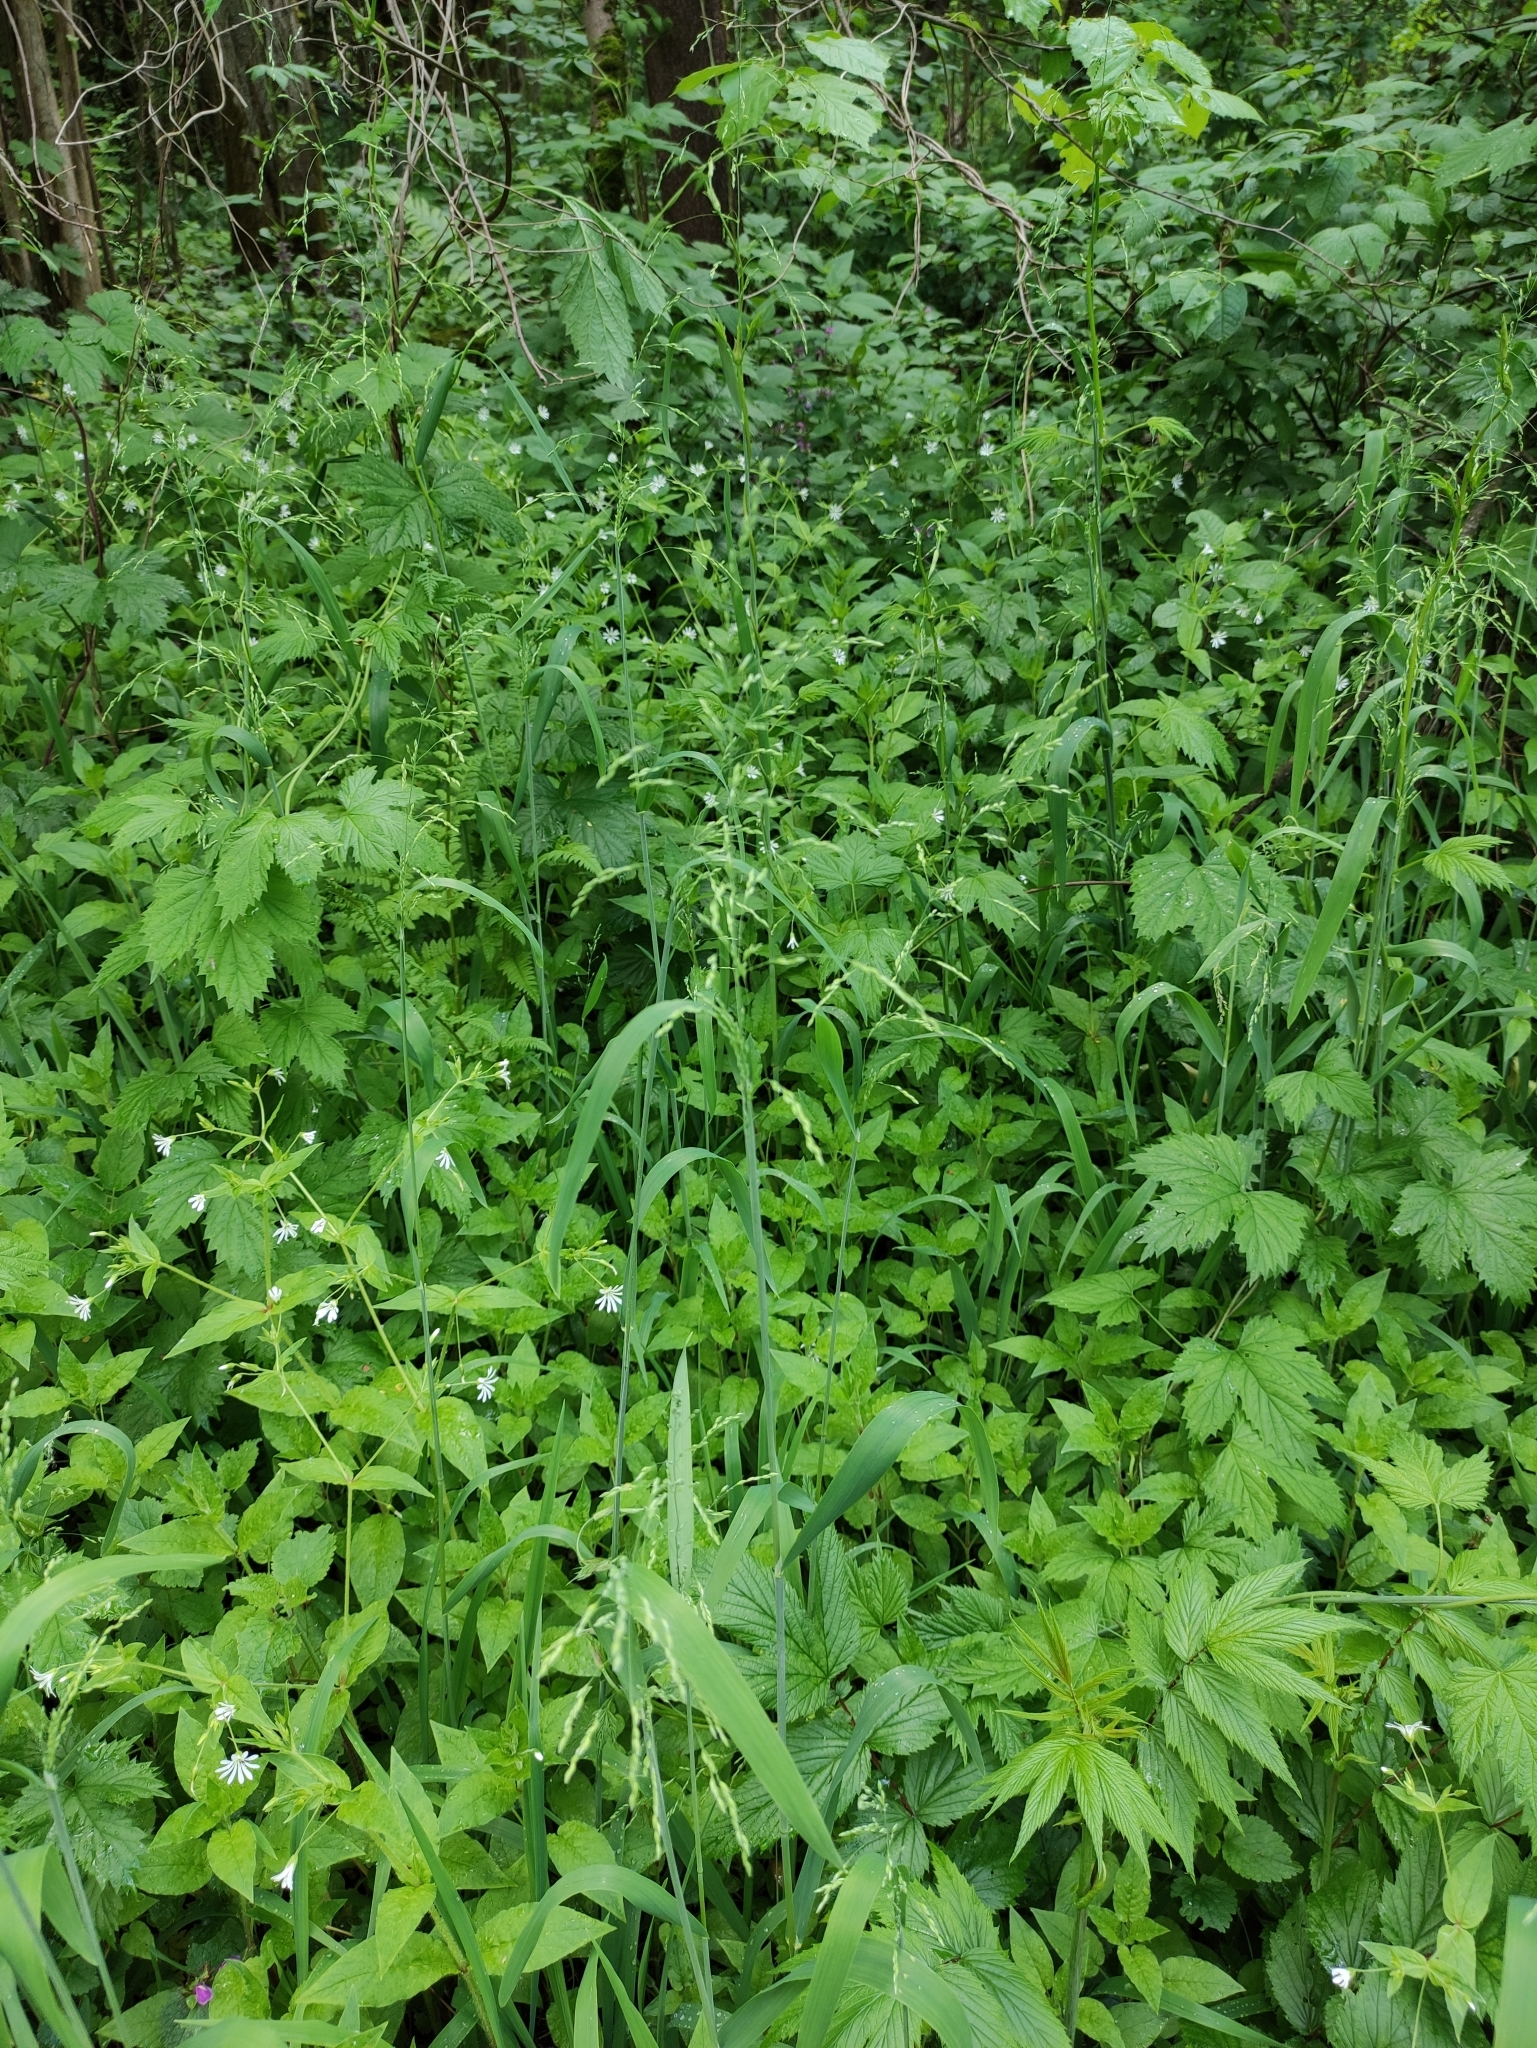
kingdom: Plantae
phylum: Tracheophyta
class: Liliopsida
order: Poales
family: Poaceae
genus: Milium
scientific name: Milium effusum
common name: Wood millet
